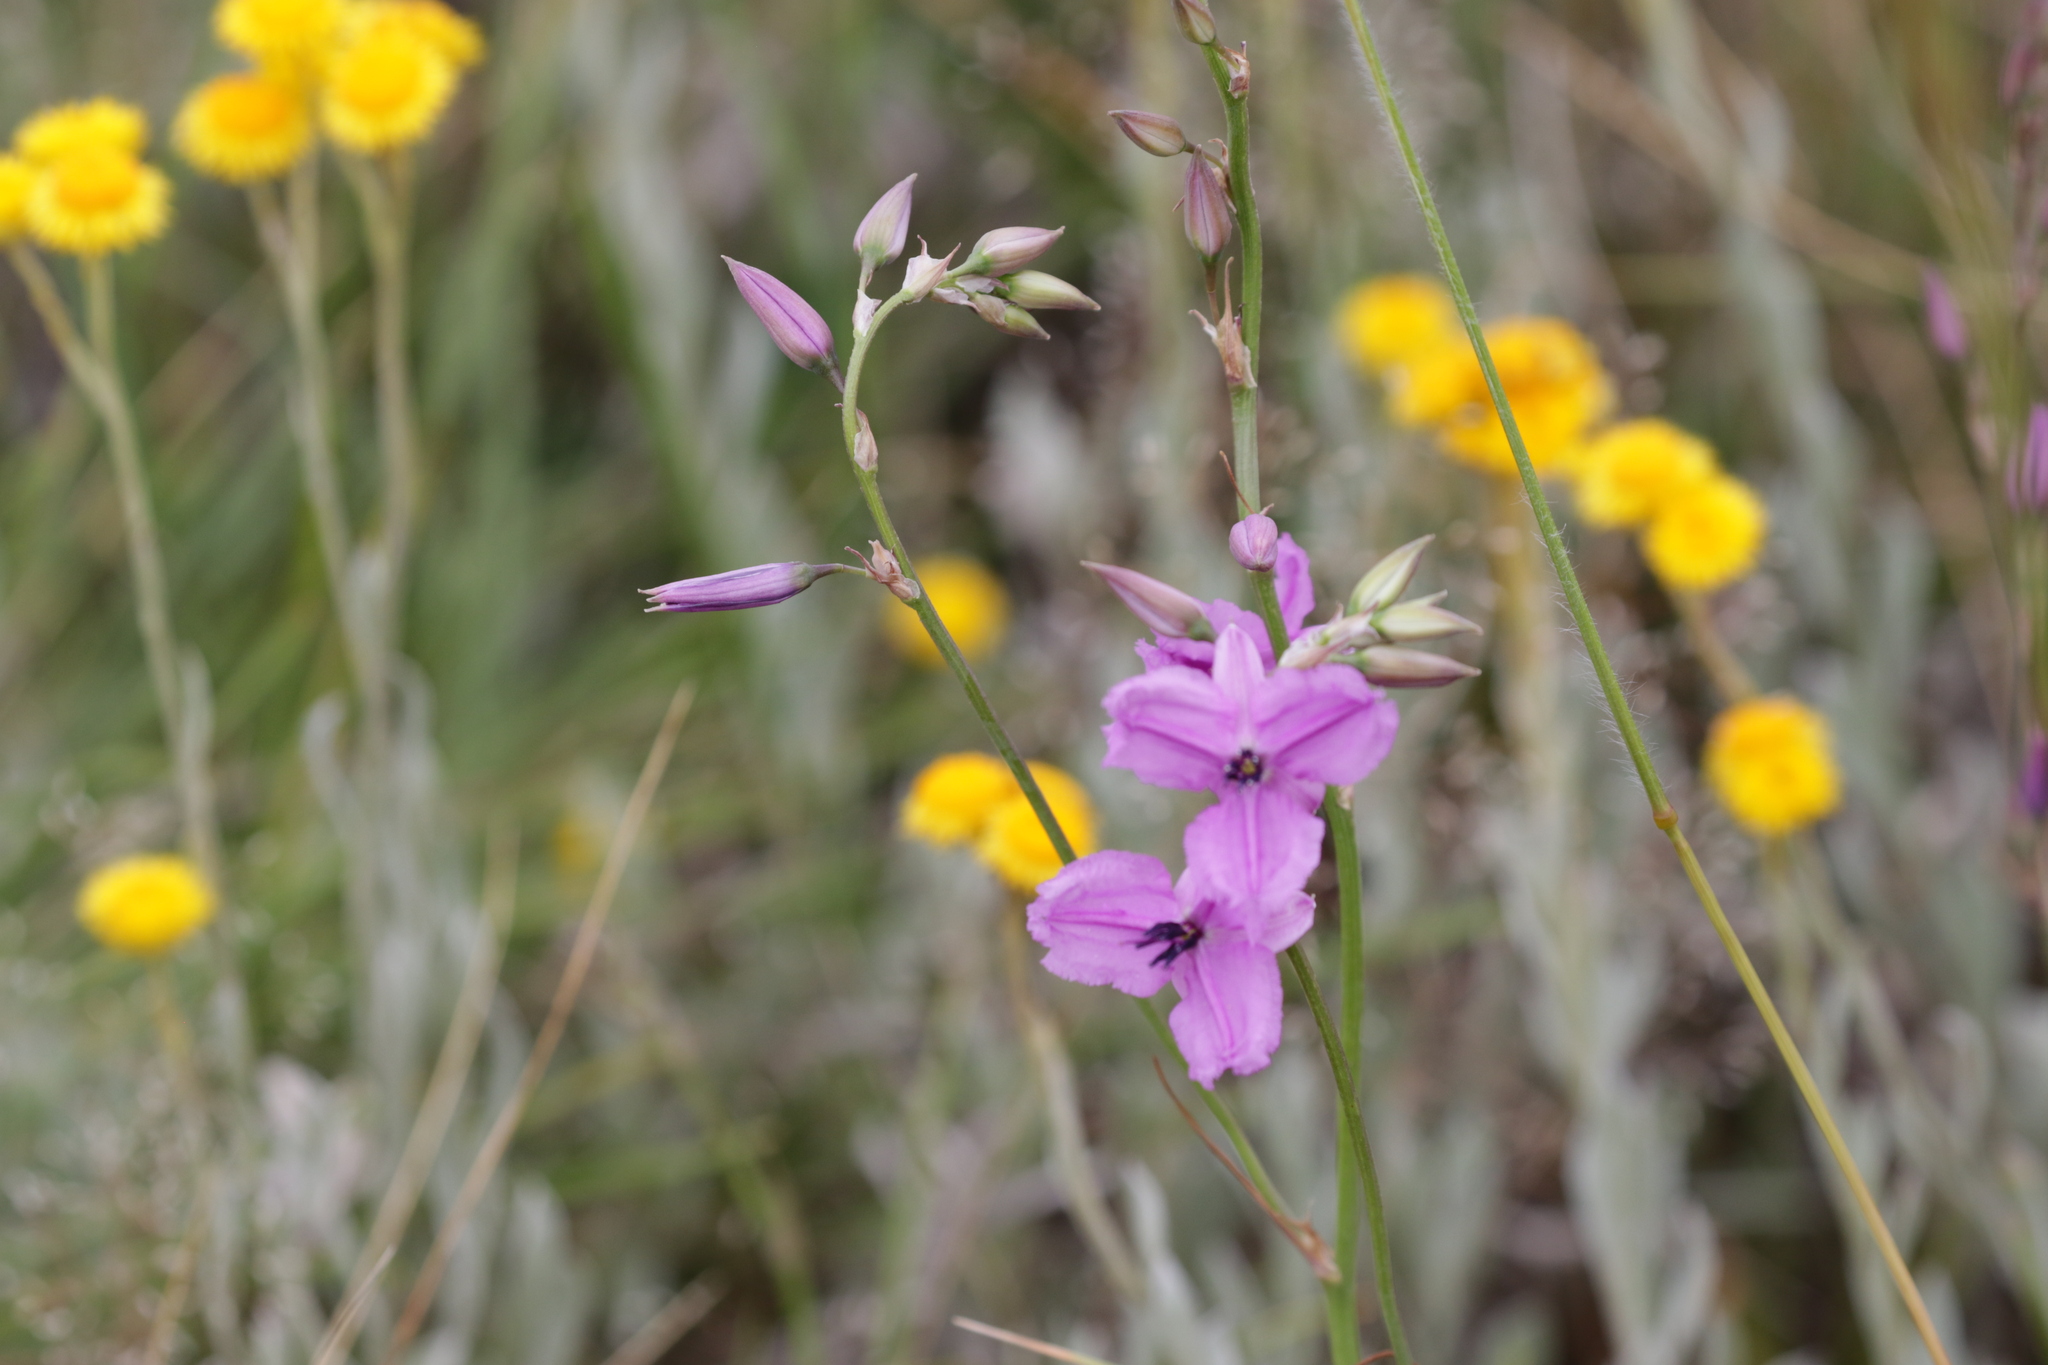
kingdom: Plantae
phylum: Tracheophyta
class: Liliopsida
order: Asparagales
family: Asparagaceae
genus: Arthropodium
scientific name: Arthropodium strictum
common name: Chocolate-lily
